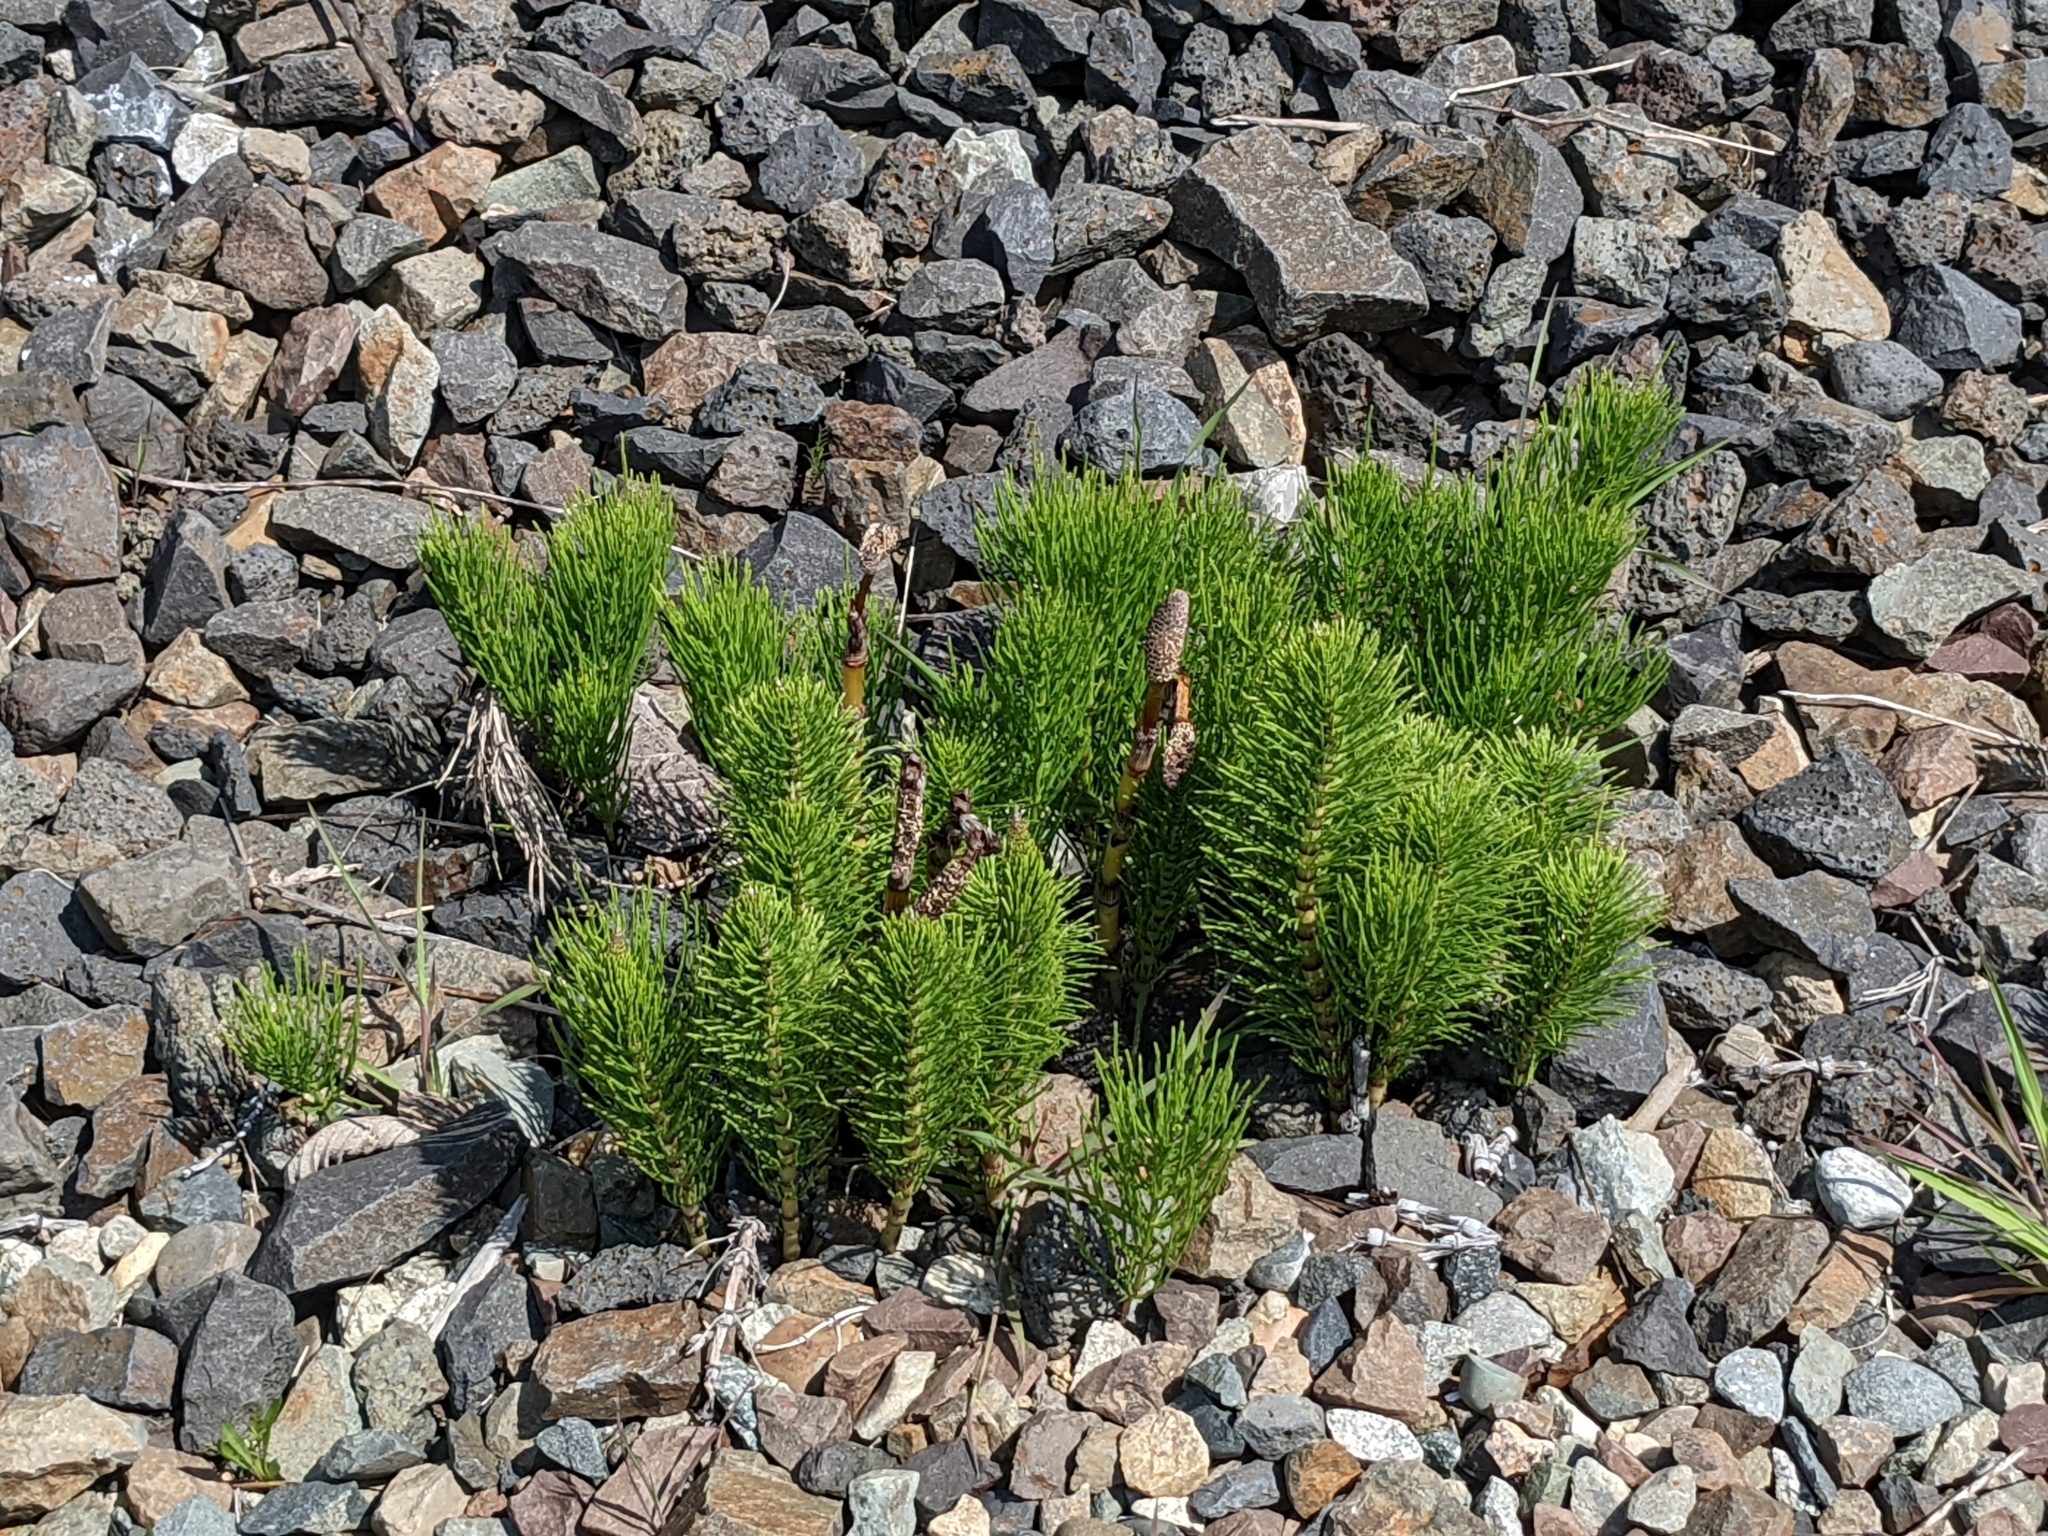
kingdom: Plantae
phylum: Tracheophyta
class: Polypodiopsida
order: Equisetales
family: Equisetaceae
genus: Equisetum
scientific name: Equisetum braunii
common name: Braun's horsetail
